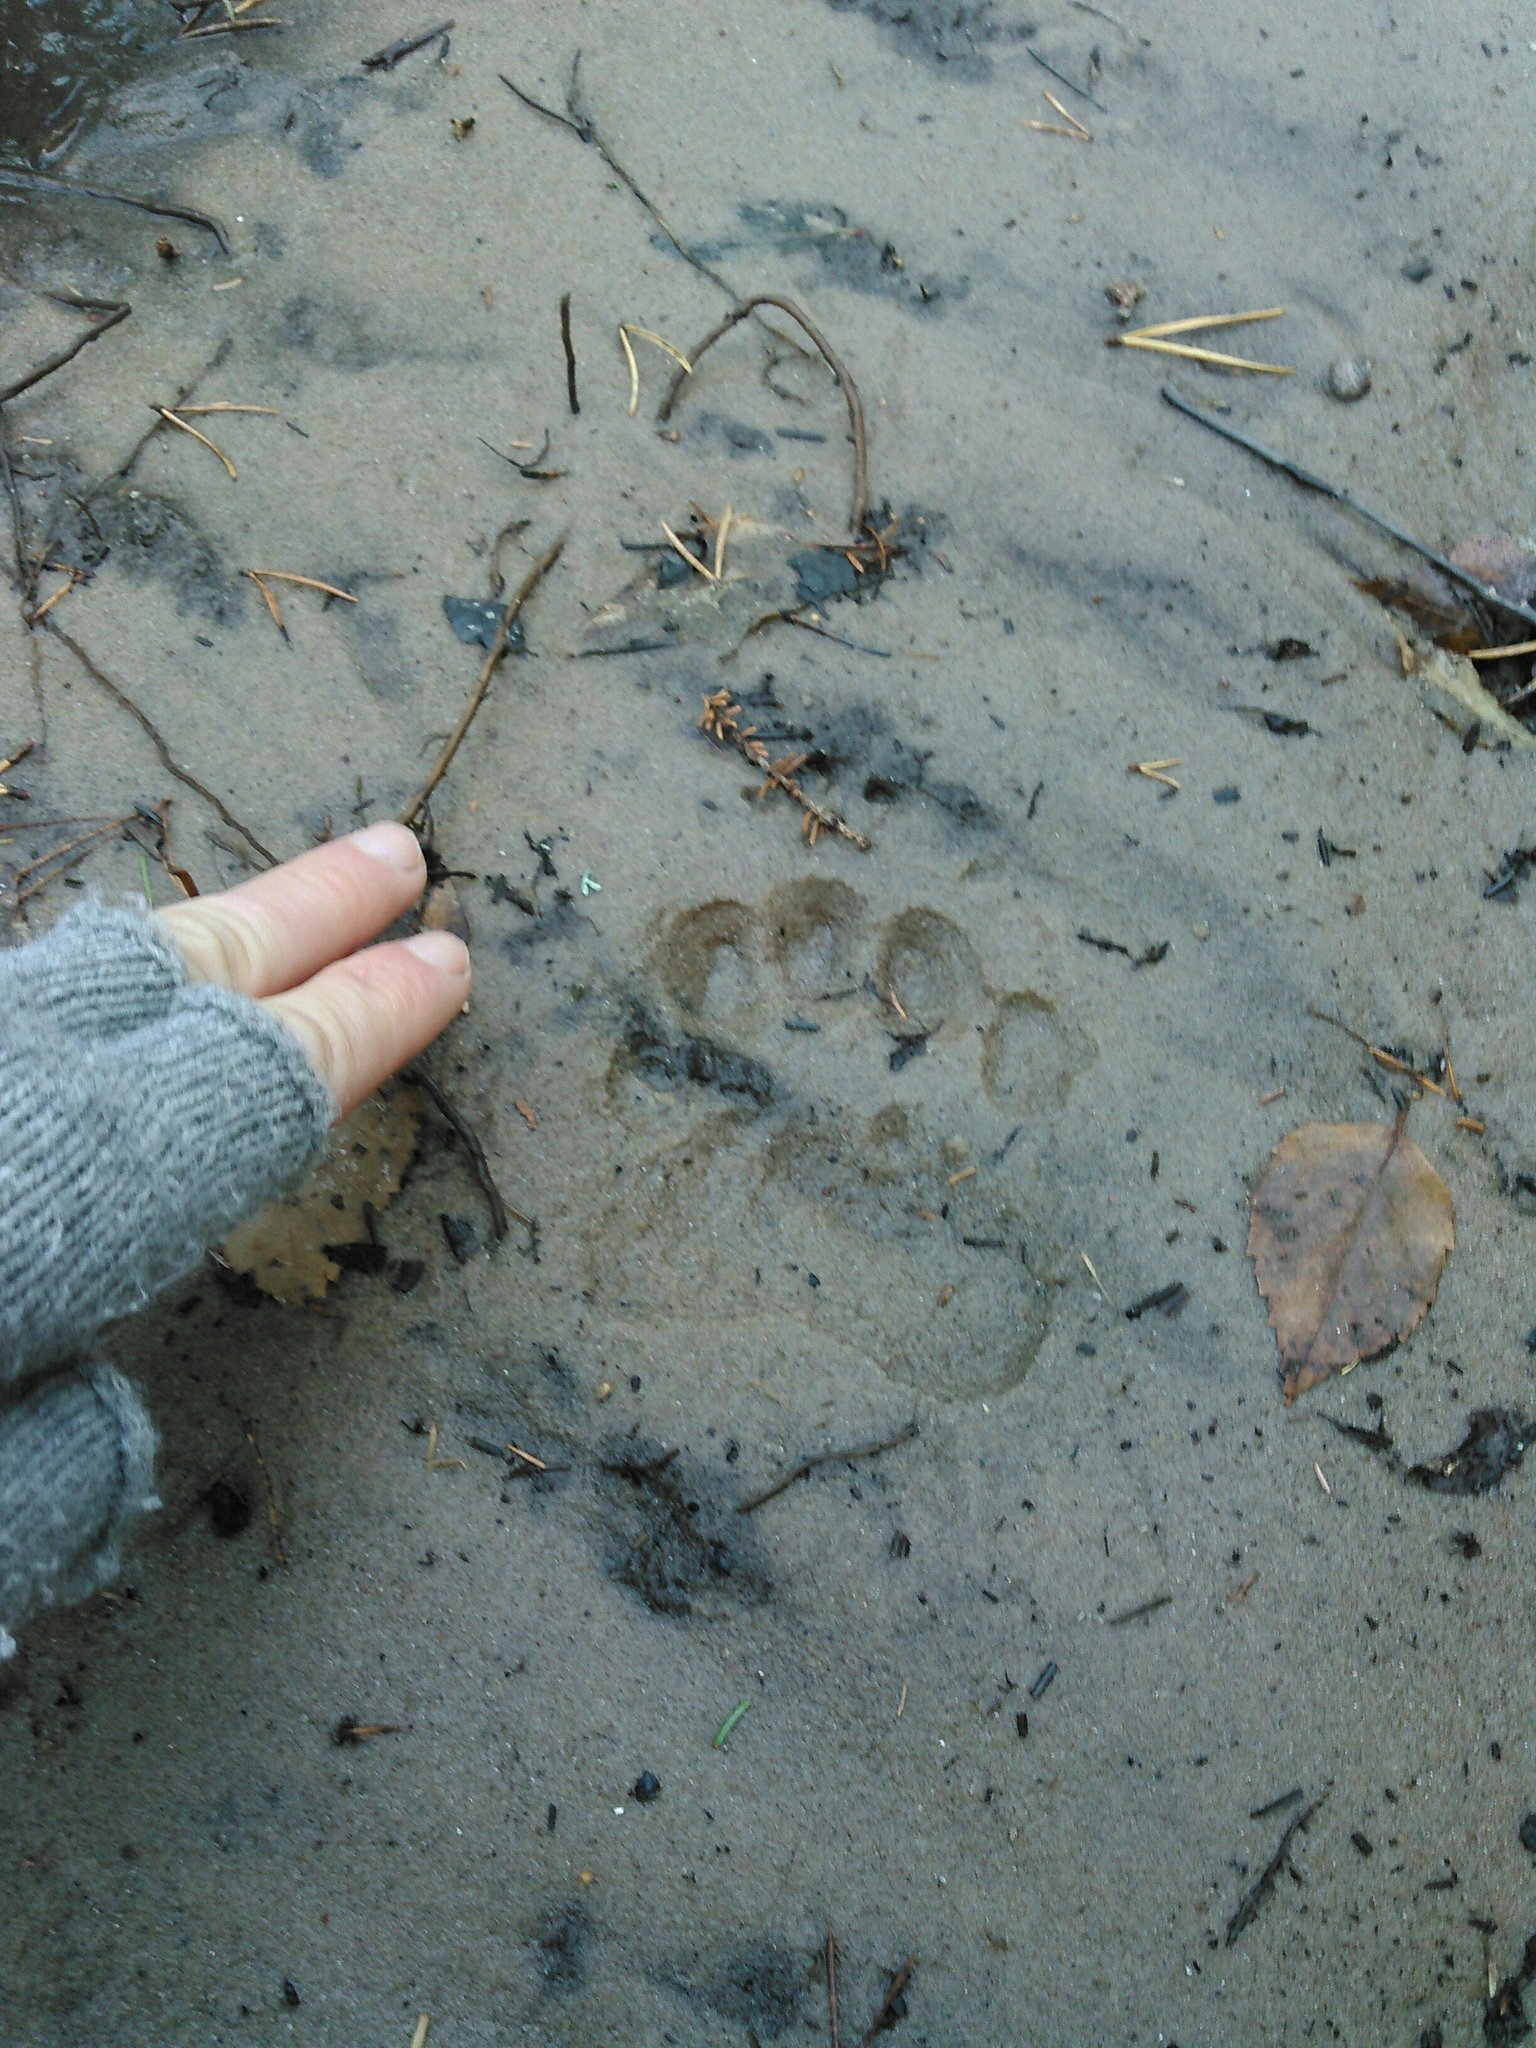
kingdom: Animalia
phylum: Chordata
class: Mammalia
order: Carnivora
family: Ursidae
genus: Ursus
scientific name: Ursus americanus
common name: American black bear
